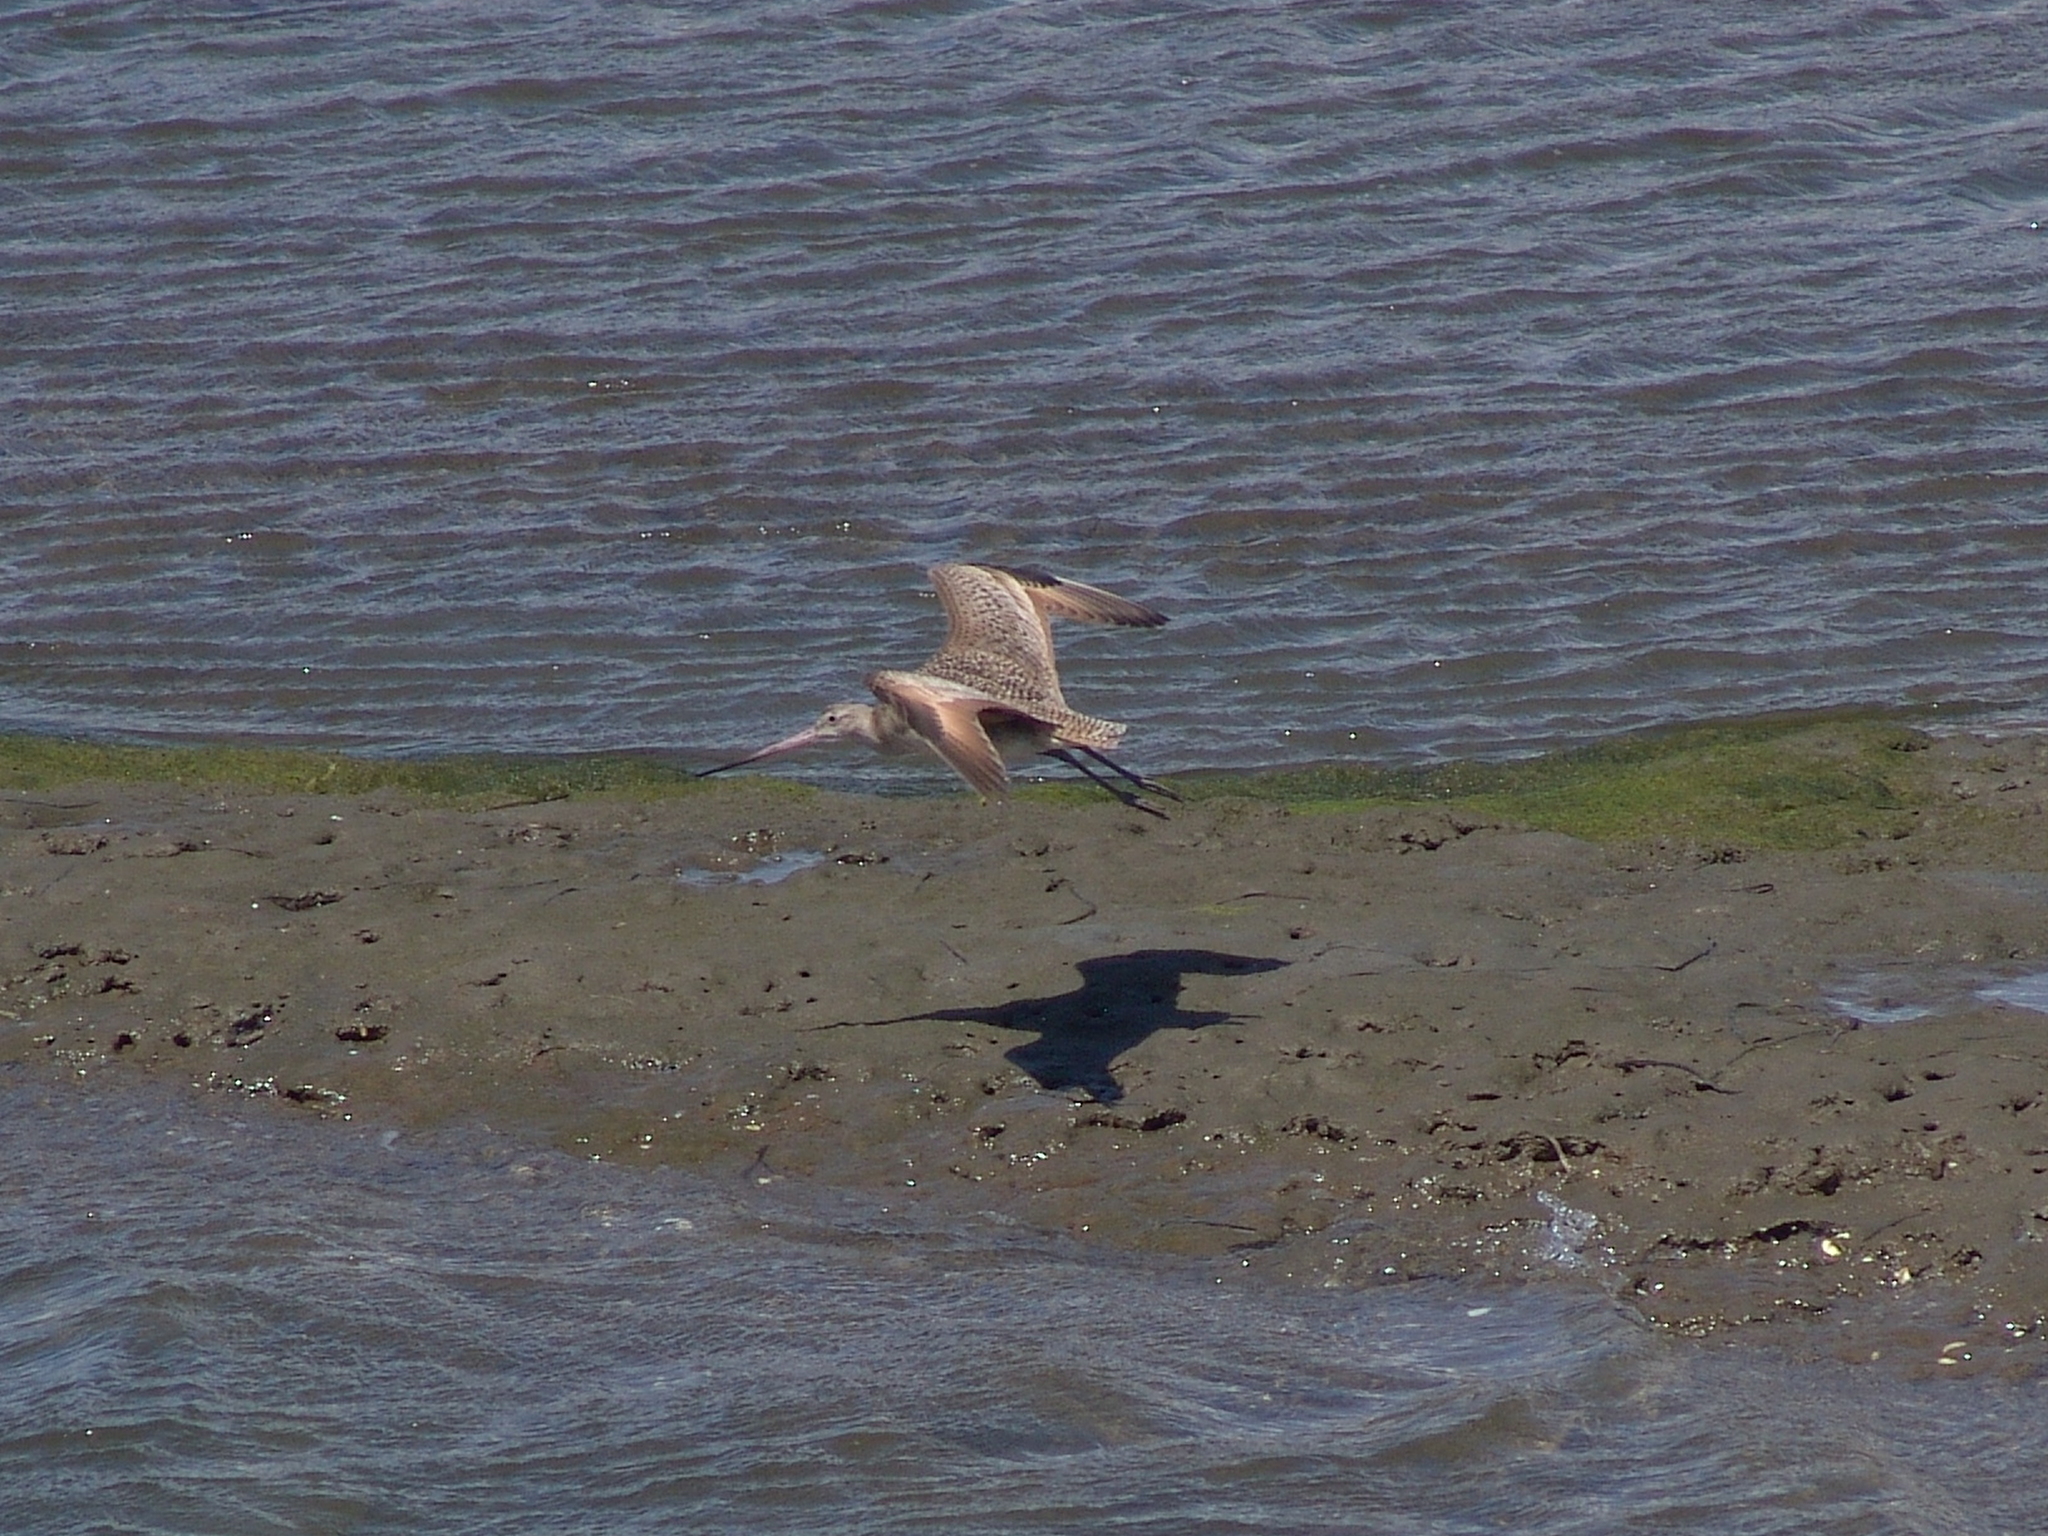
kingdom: Animalia
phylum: Chordata
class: Aves
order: Charadriiformes
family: Scolopacidae
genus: Limosa
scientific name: Limosa fedoa
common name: Marbled godwit
